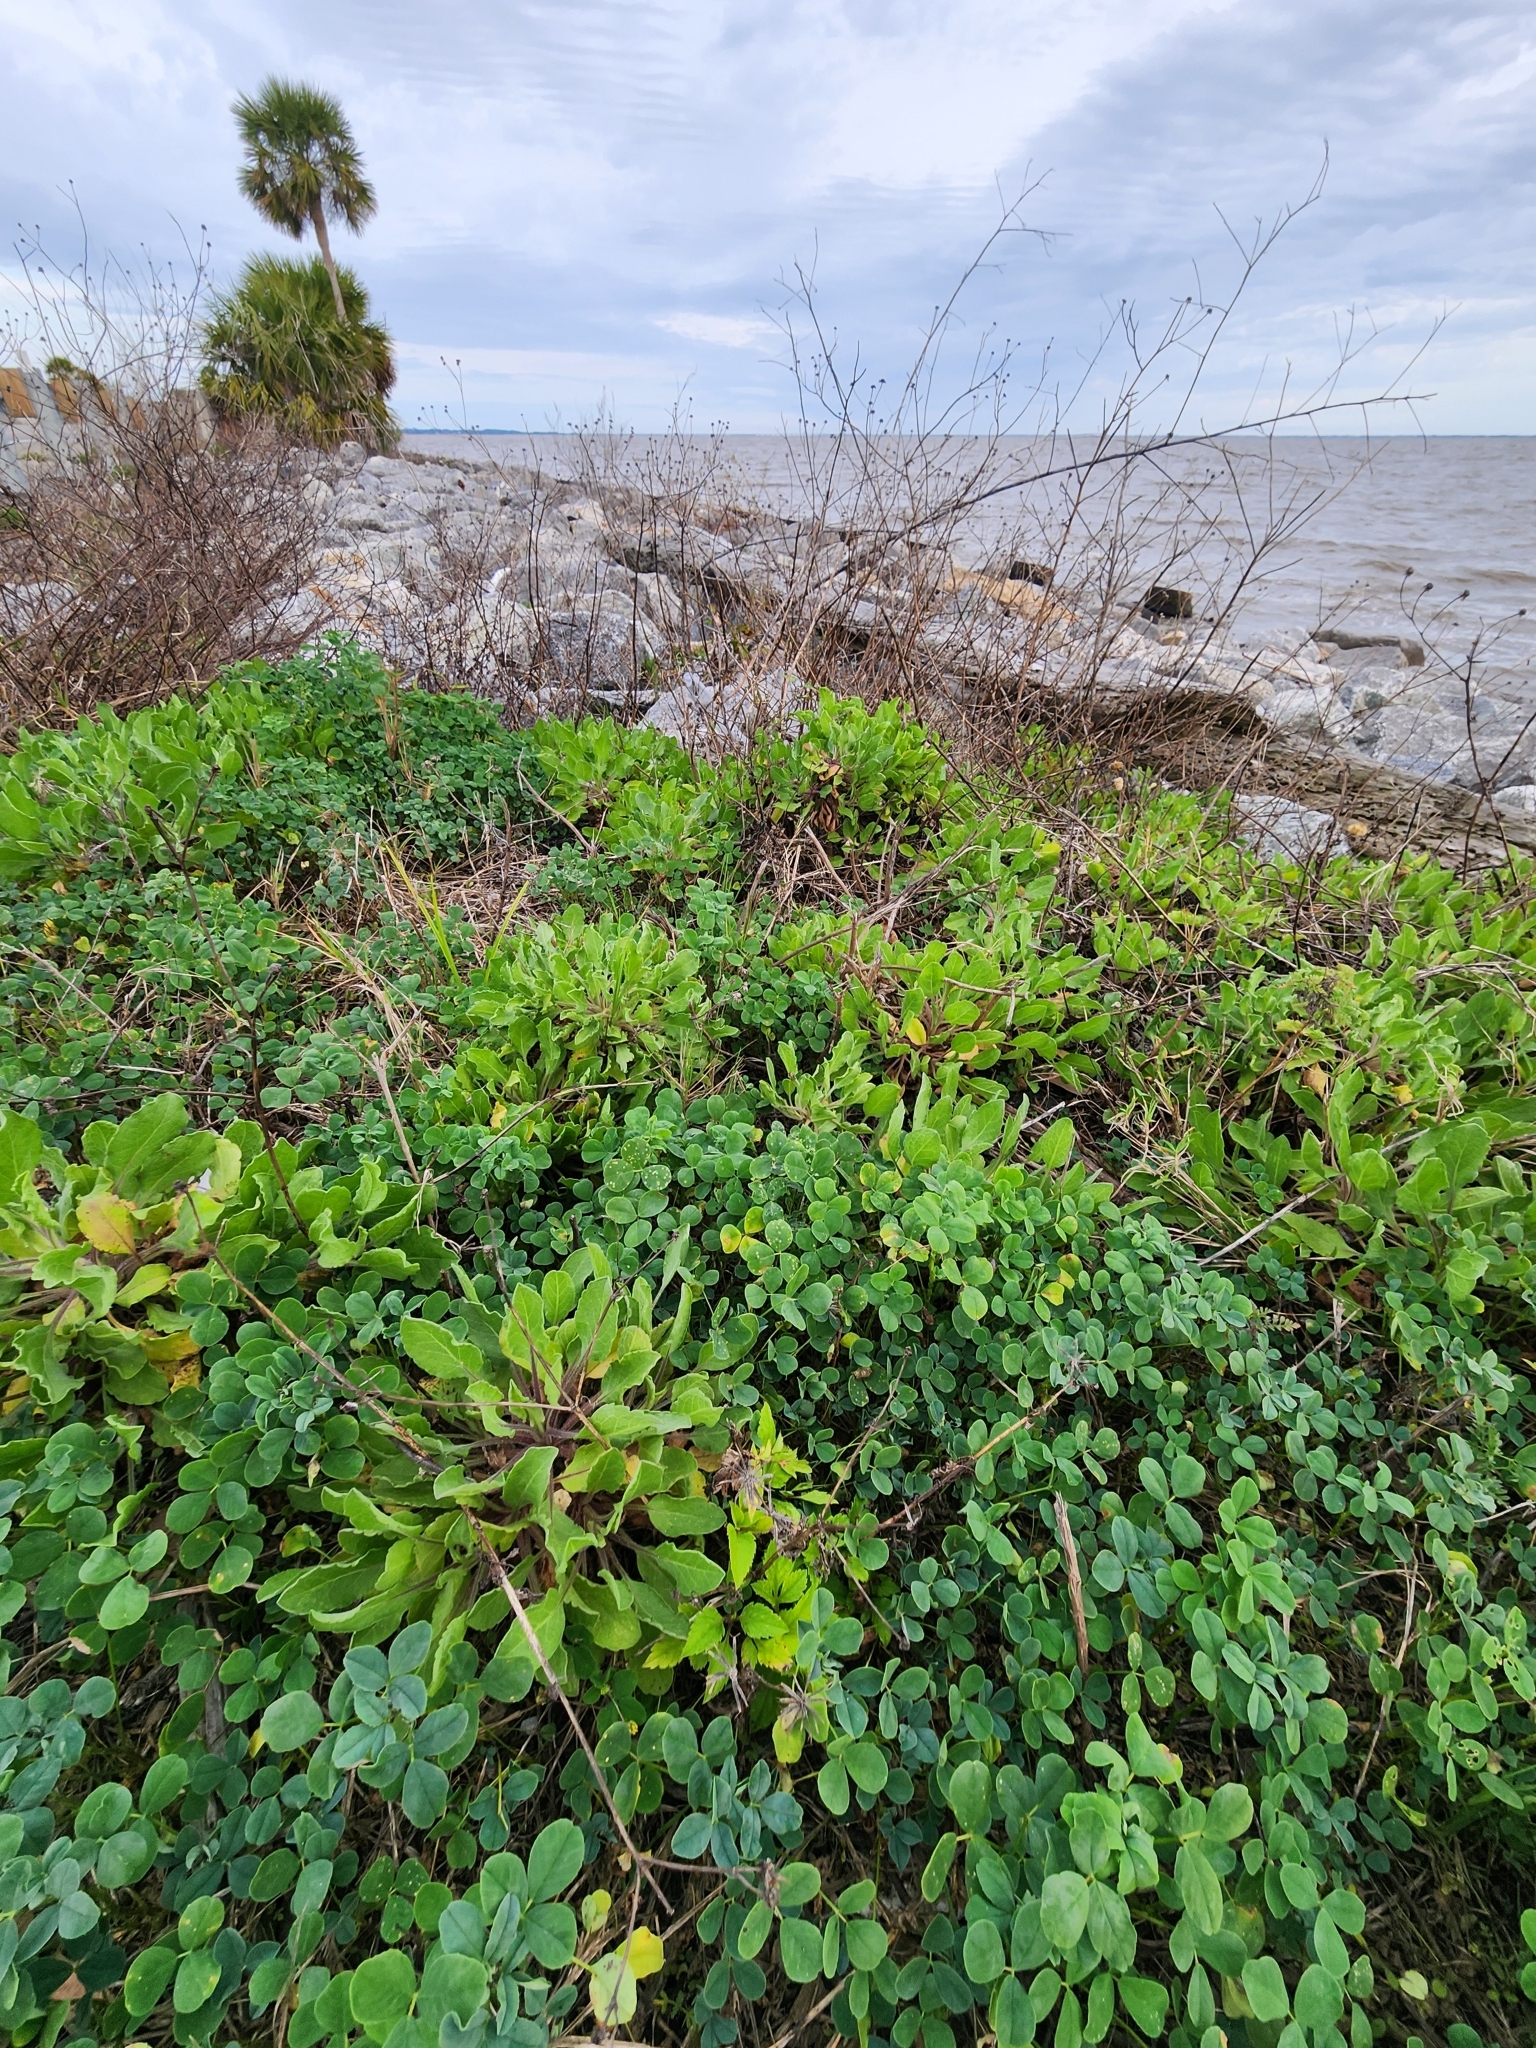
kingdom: Plantae
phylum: Tracheophyta
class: Magnoliopsida
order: Asterales
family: Asteraceae
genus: Heterotheca
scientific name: Heterotheca subaxillaris
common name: Camphorweed
